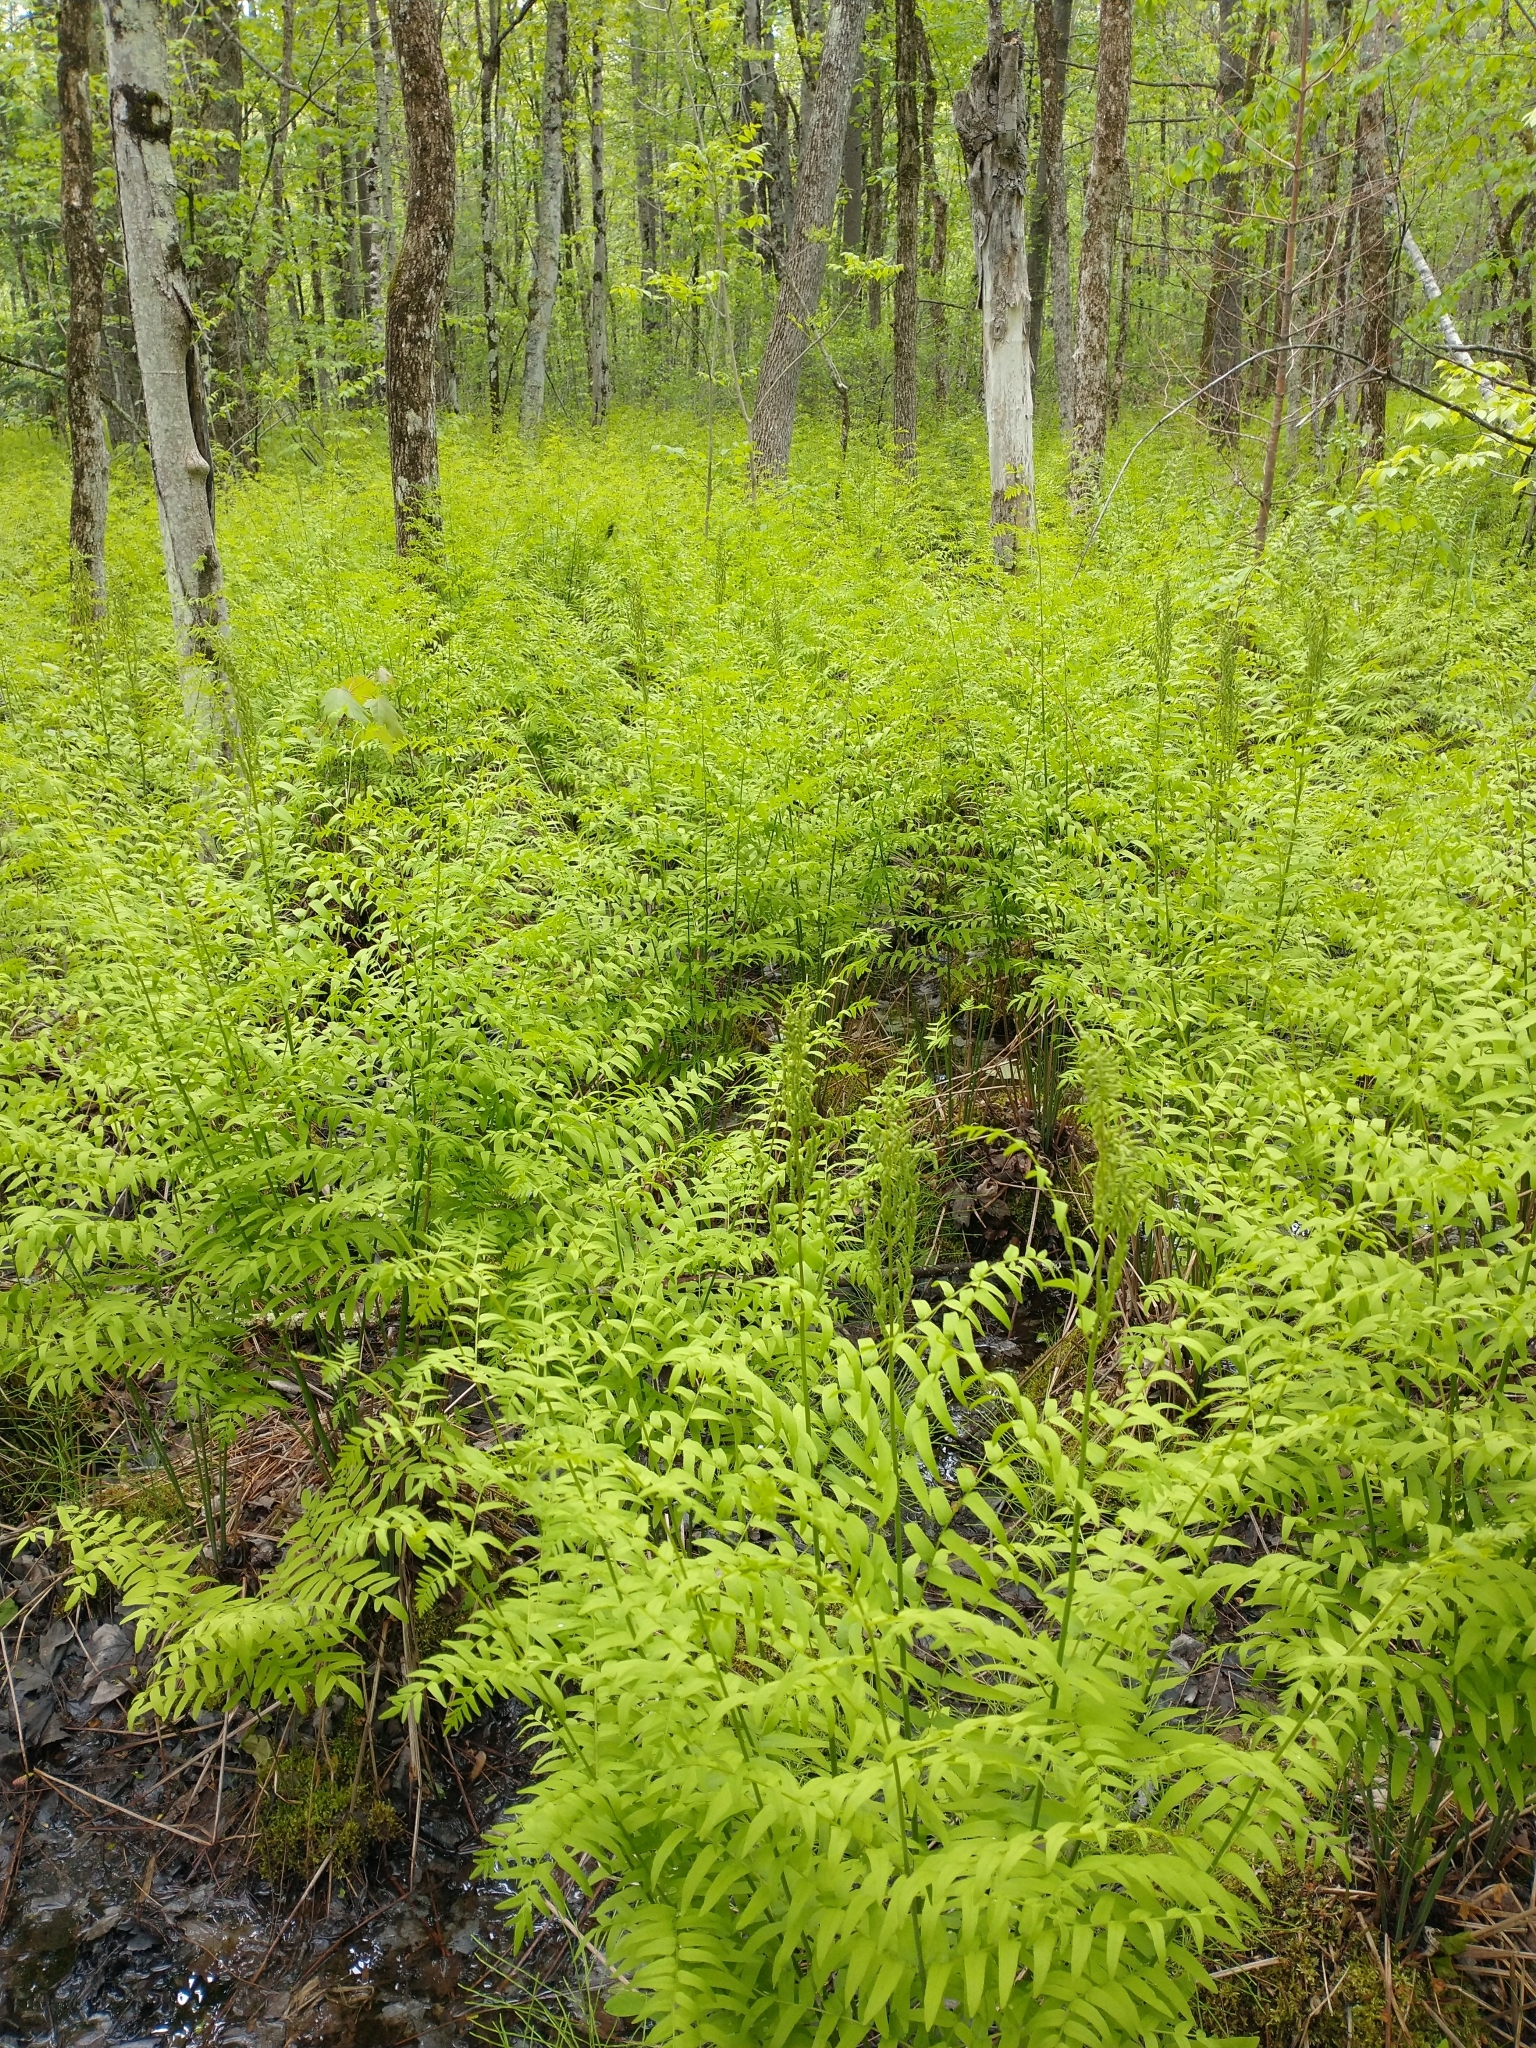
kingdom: Plantae
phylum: Tracheophyta
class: Polypodiopsida
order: Osmundales
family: Osmundaceae
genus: Osmunda
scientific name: Osmunda spectabilis
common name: American royal fern
